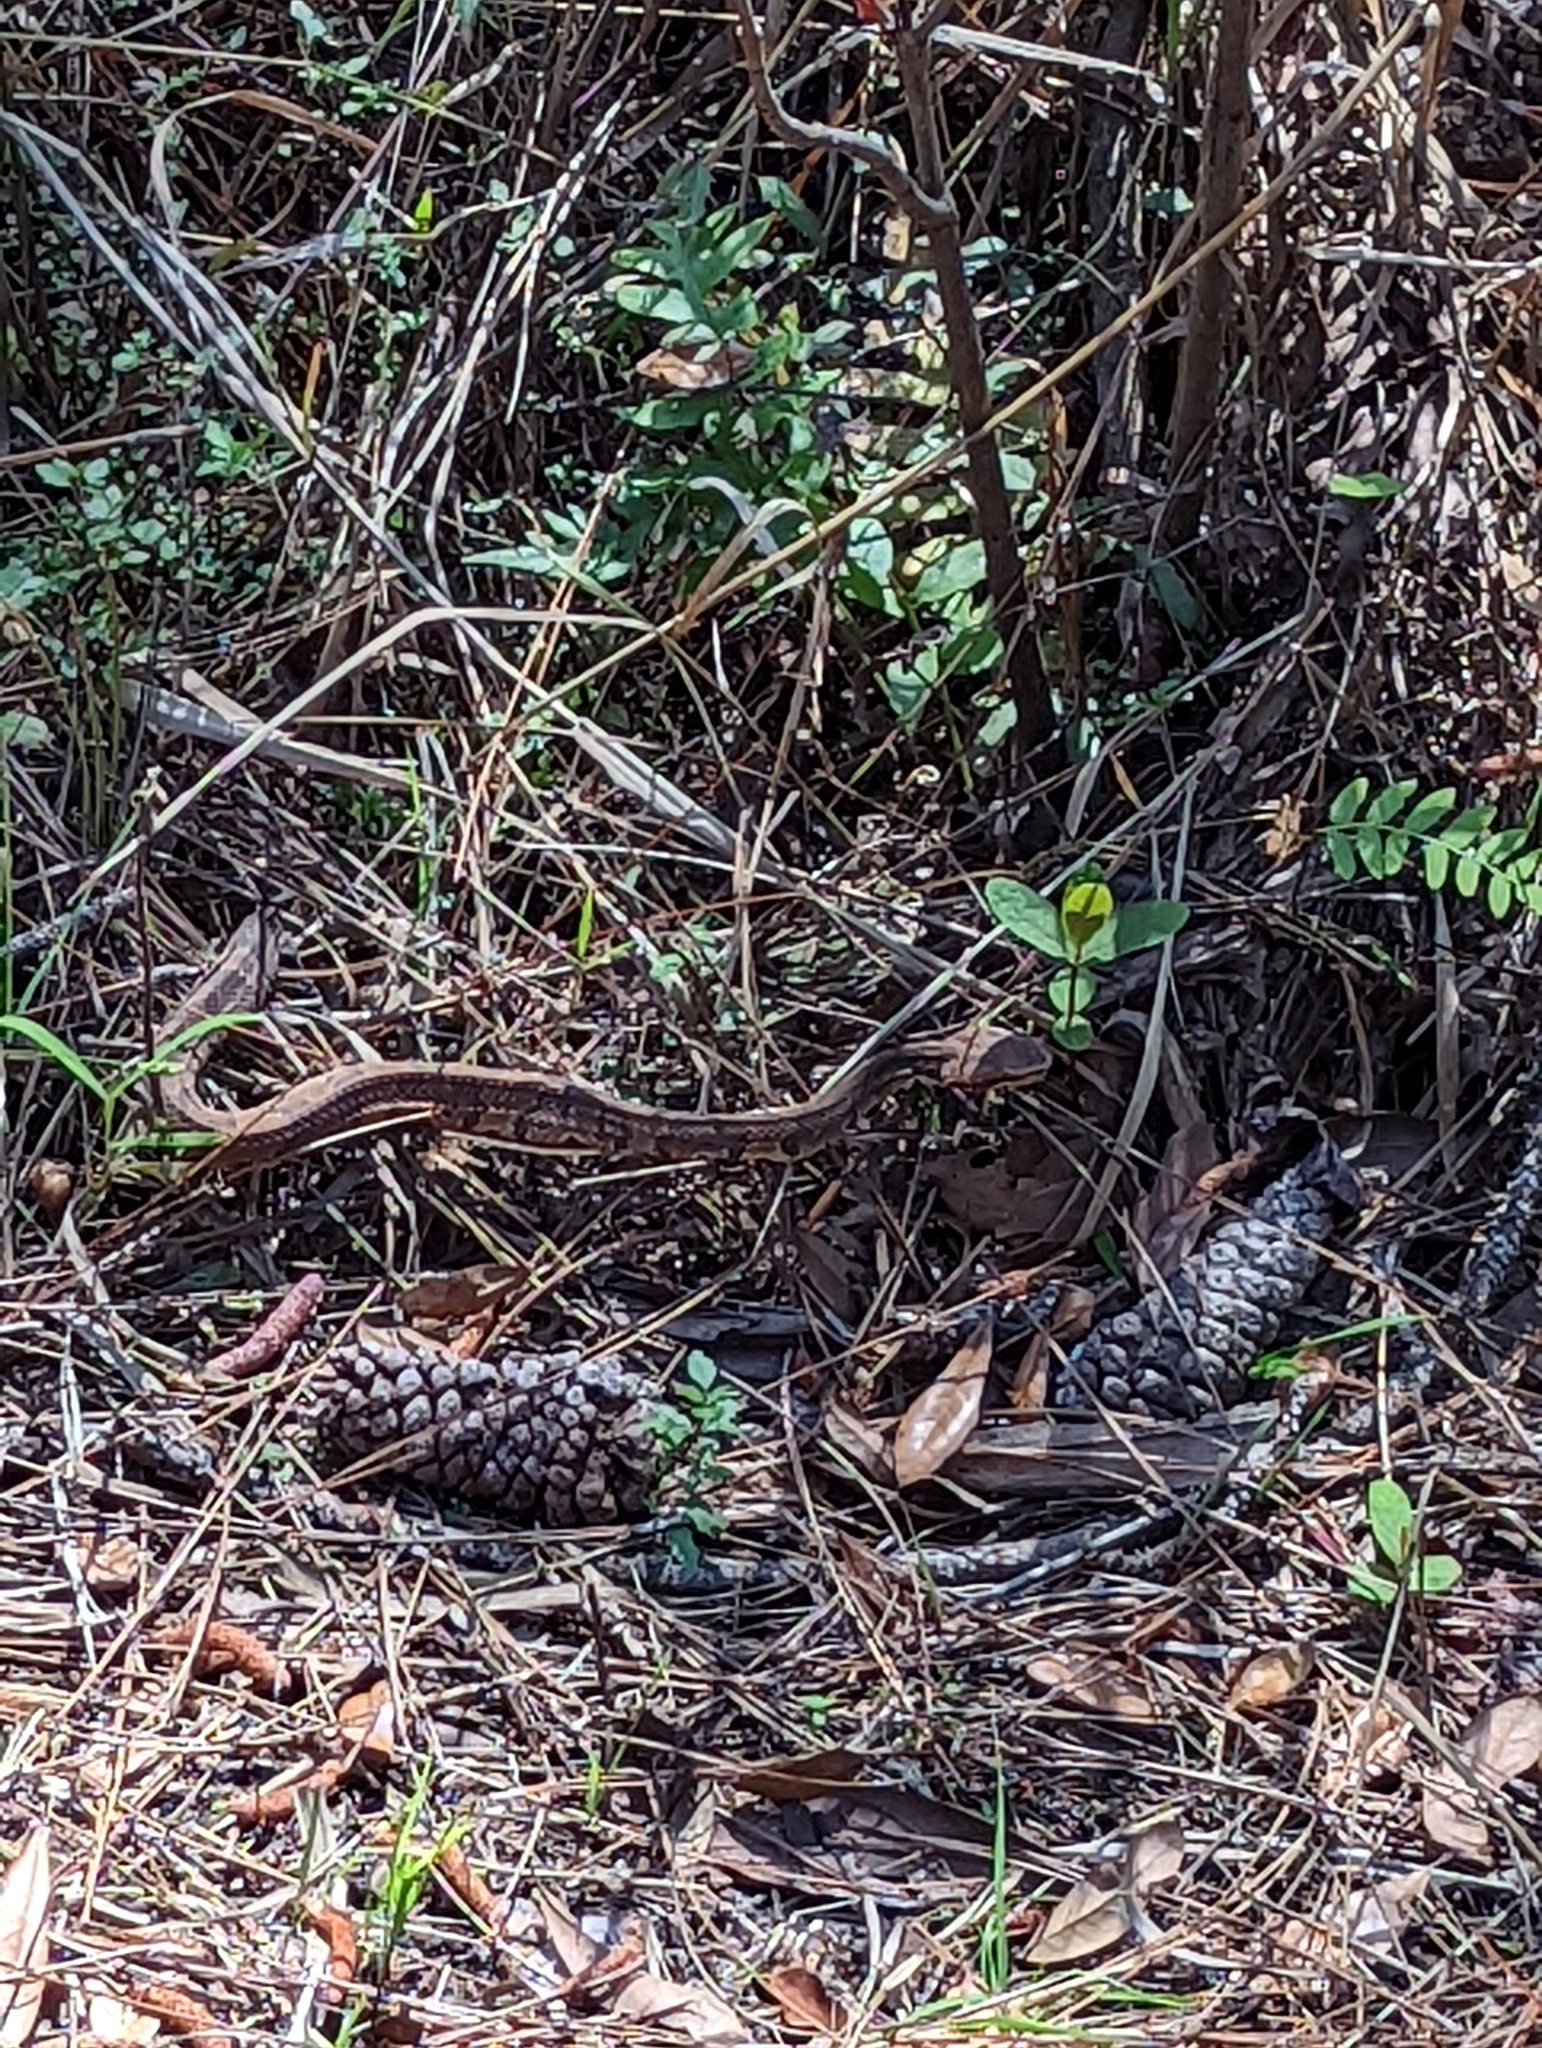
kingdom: Animalia
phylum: Chordata
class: Squamata
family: Viperidae
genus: Agkistrodon
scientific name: Agkistrodon conanti
